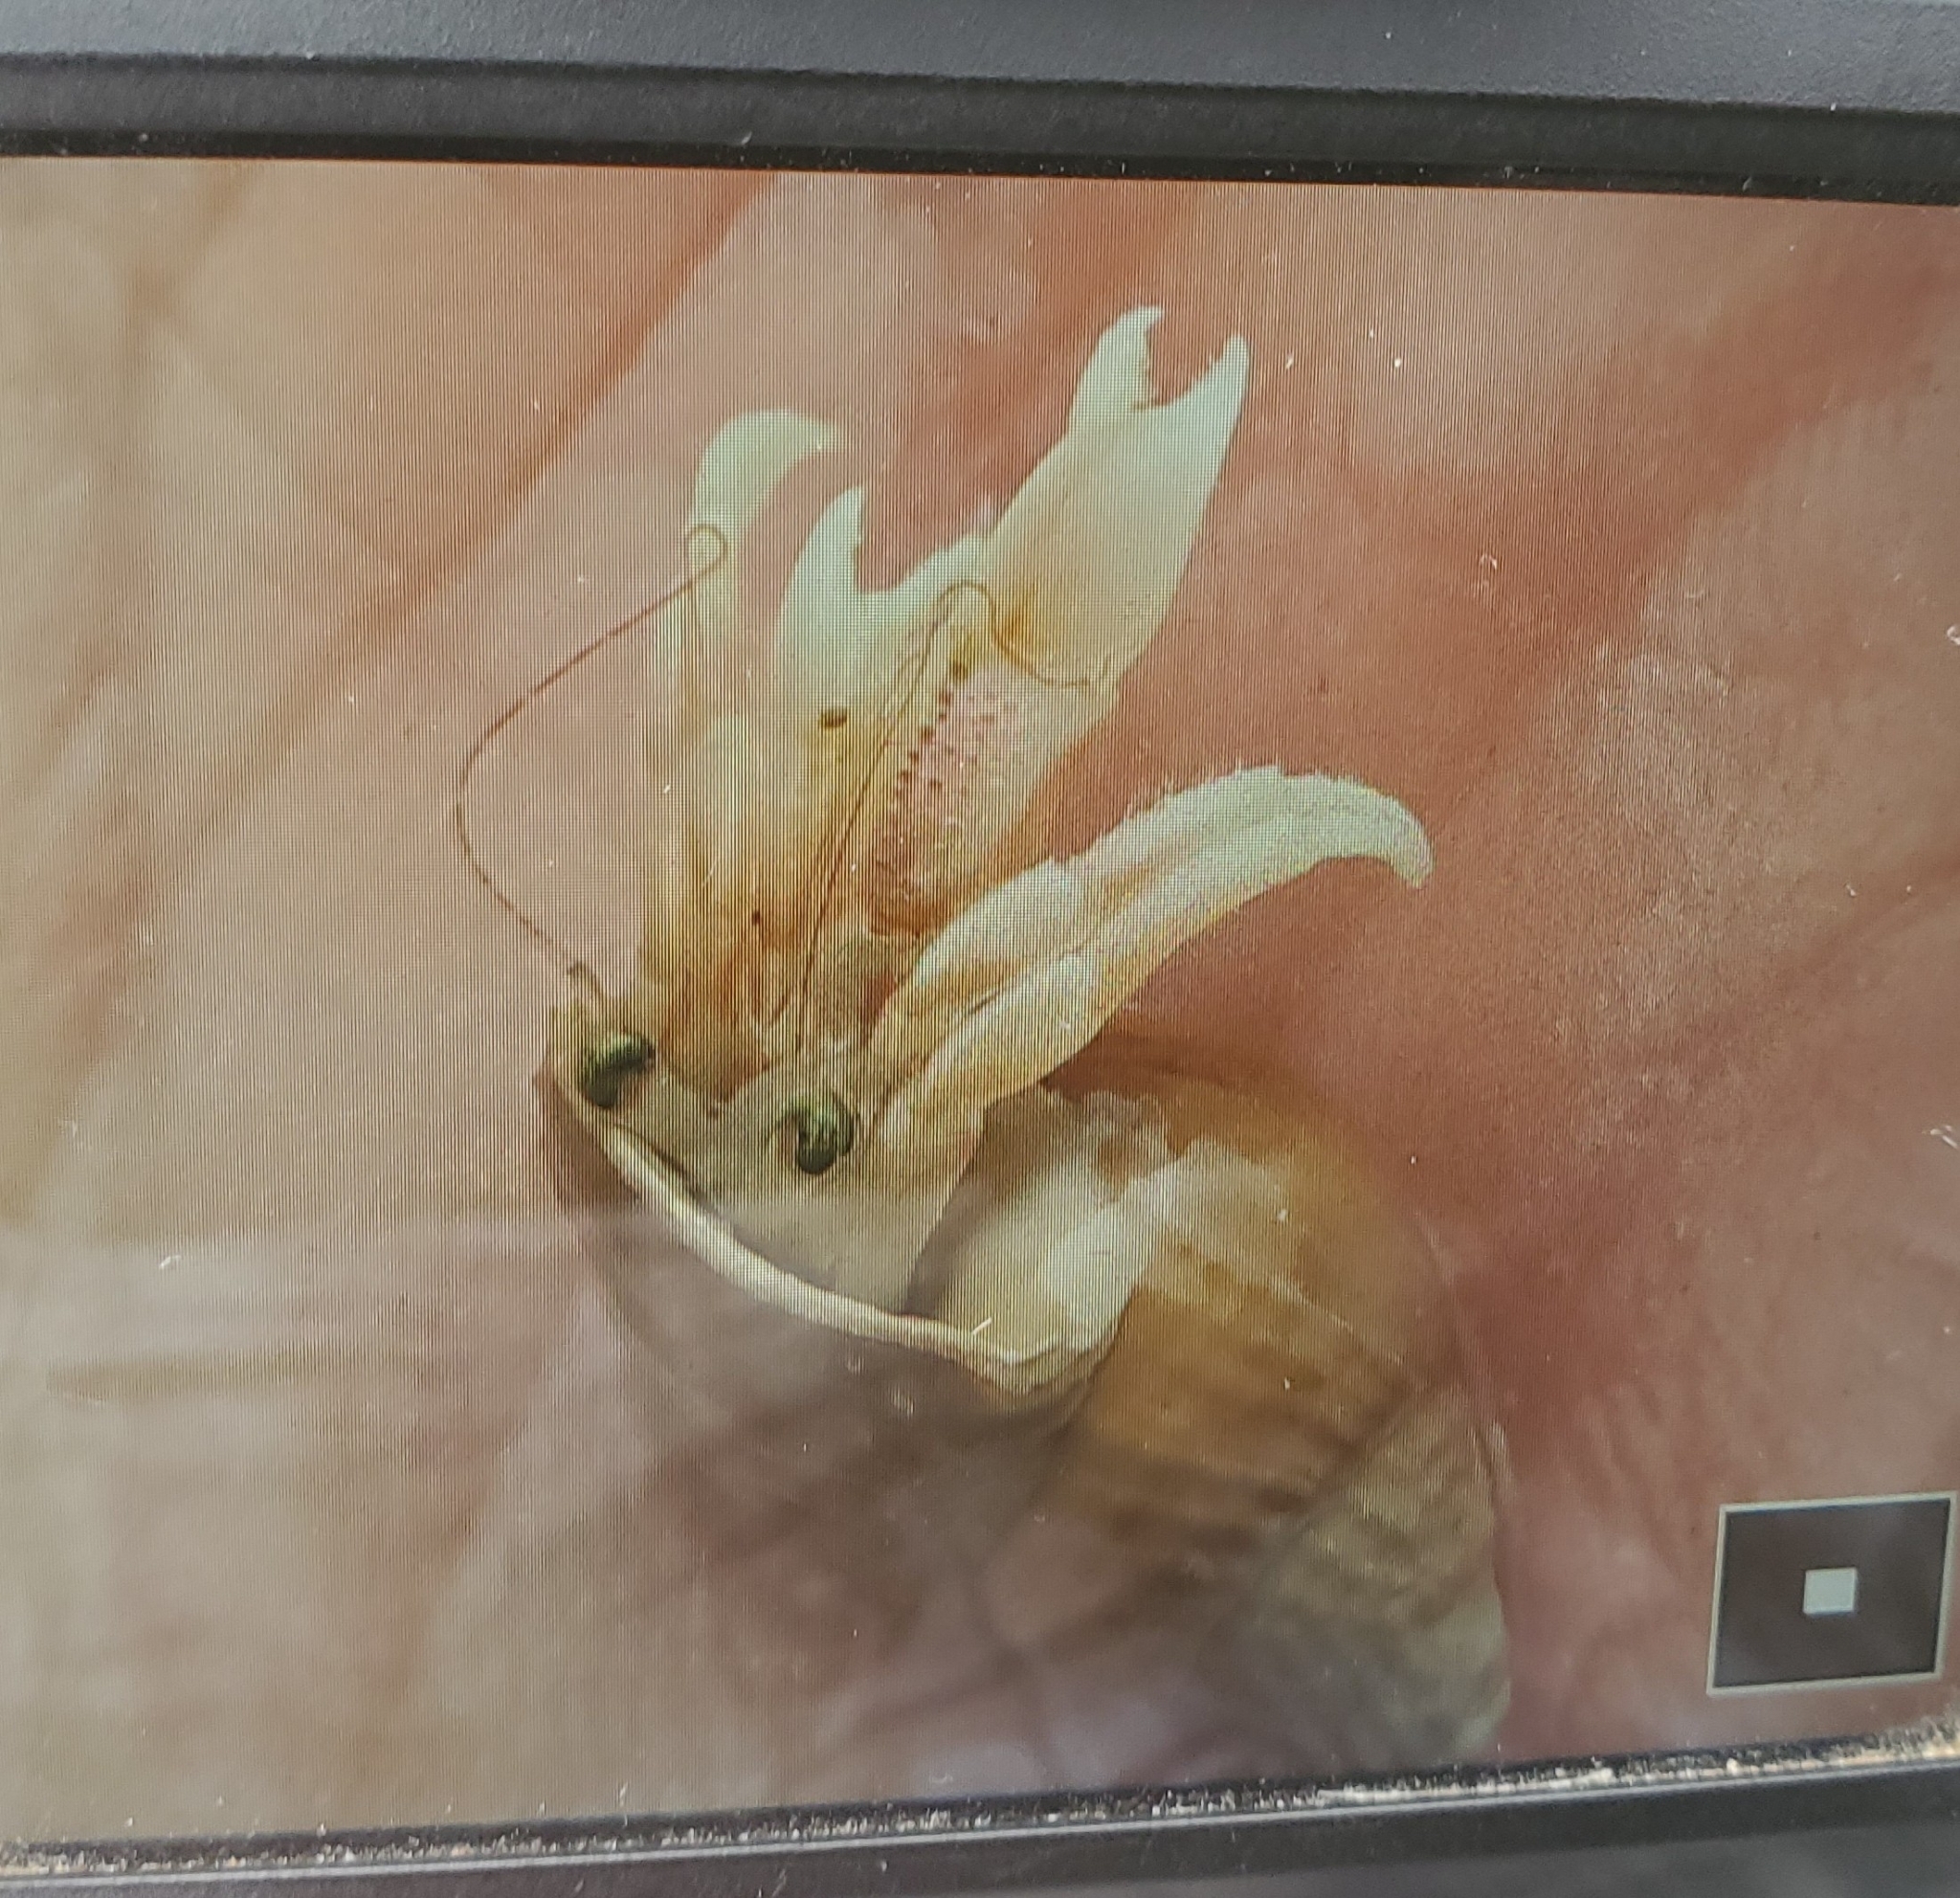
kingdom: Animalia
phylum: Arthropoda
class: Malacostraca
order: Decapoda
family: Paguridae
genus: Pagurus
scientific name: Pagurus longicarpus
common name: Long-armed hermit crab
